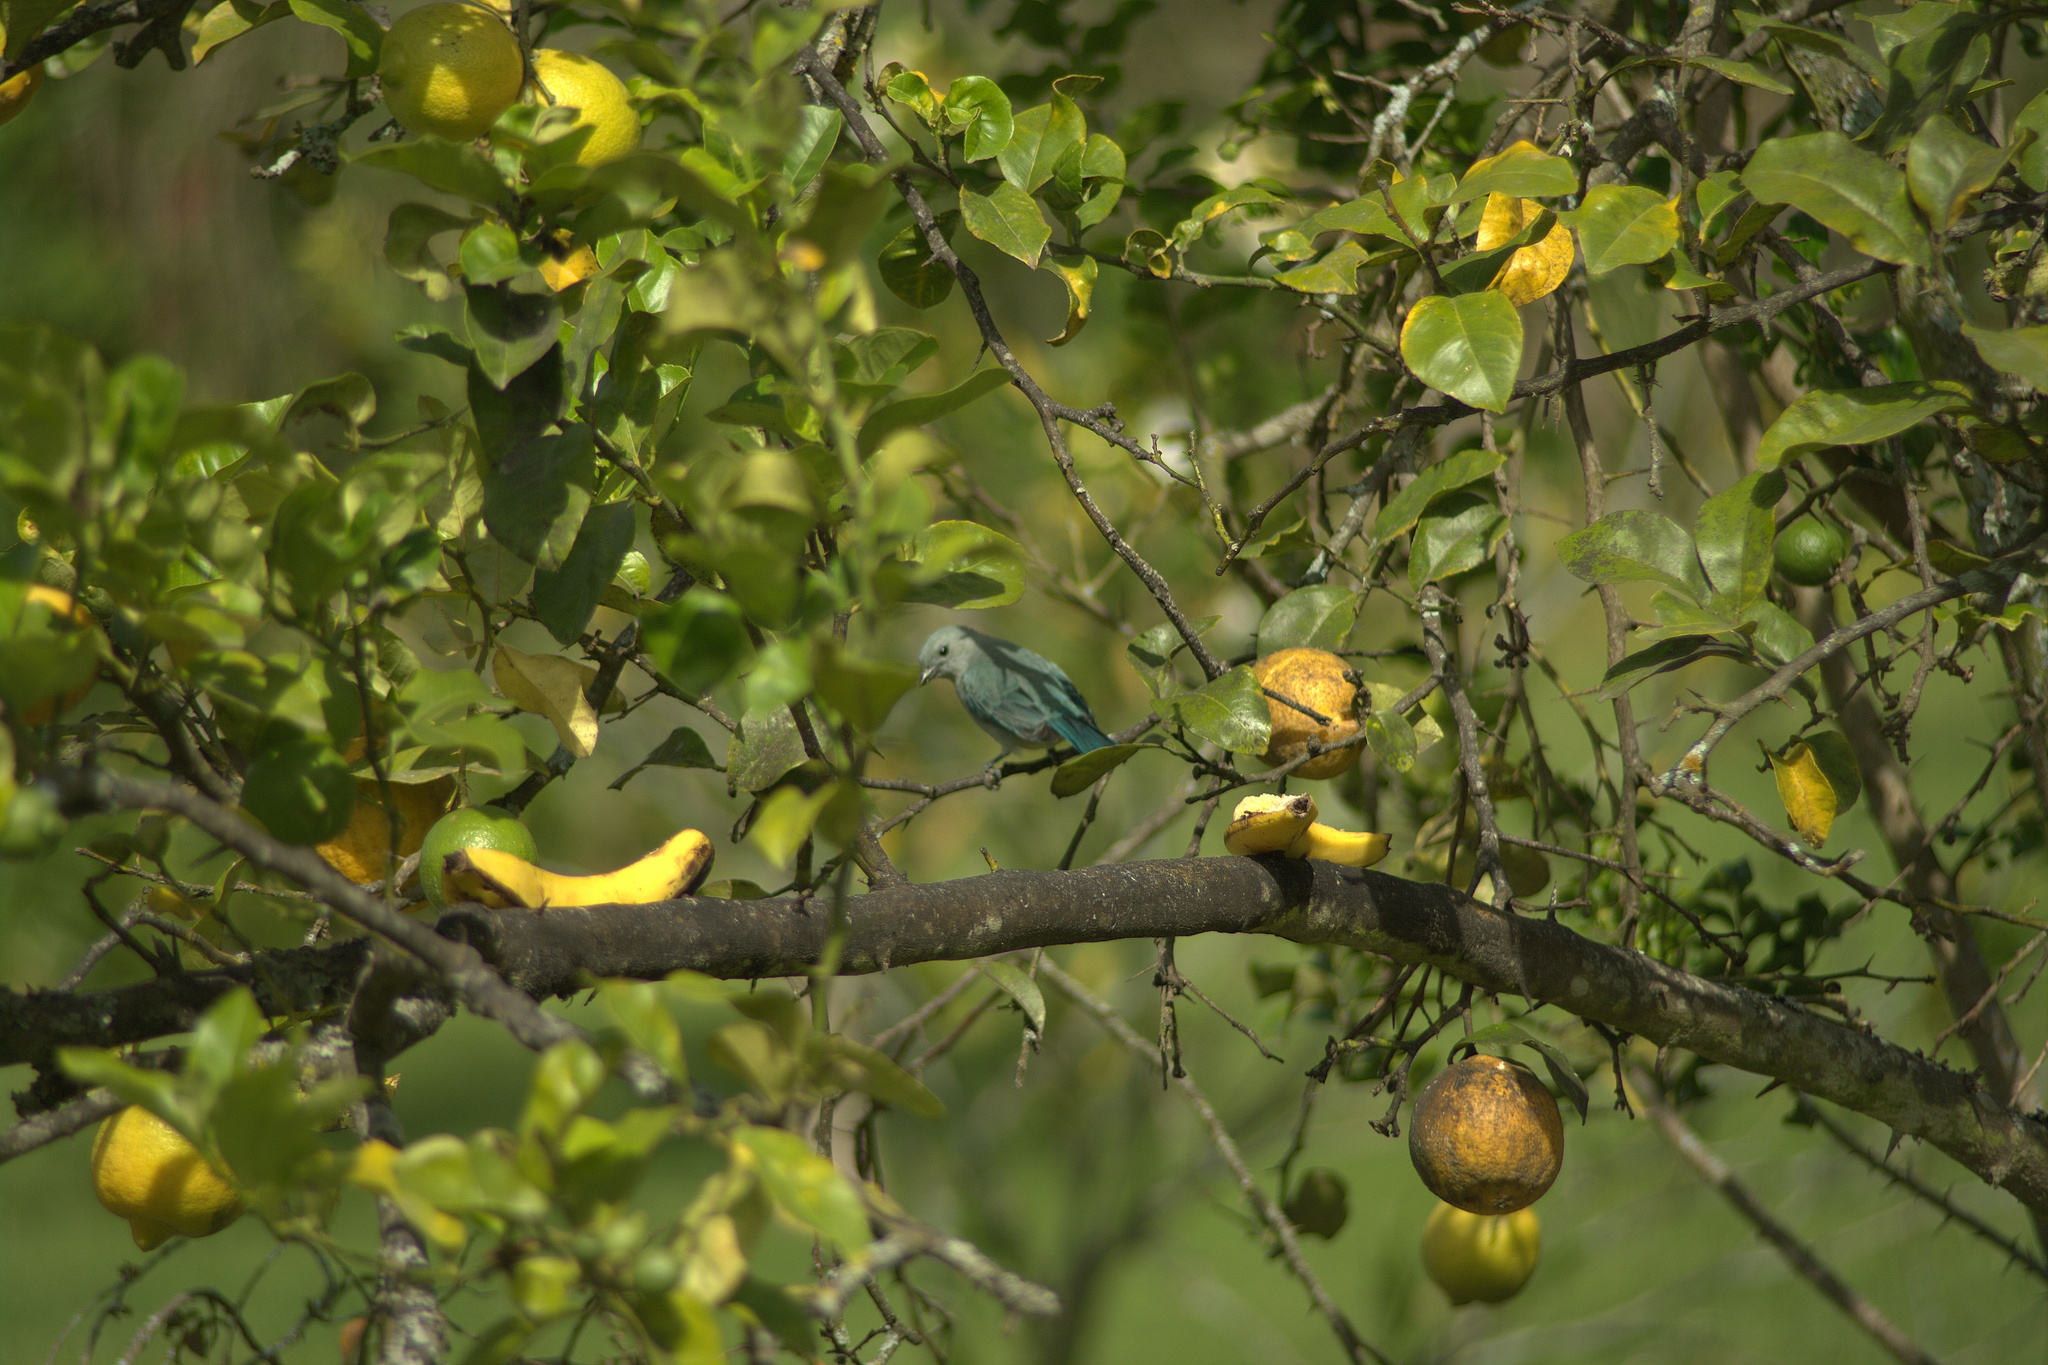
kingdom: Animalia
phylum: Chordata
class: Aves
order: Passeriformes
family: Thraupidae
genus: Thraupis
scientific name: Thraupis episcopus
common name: Blue-grey tanager
